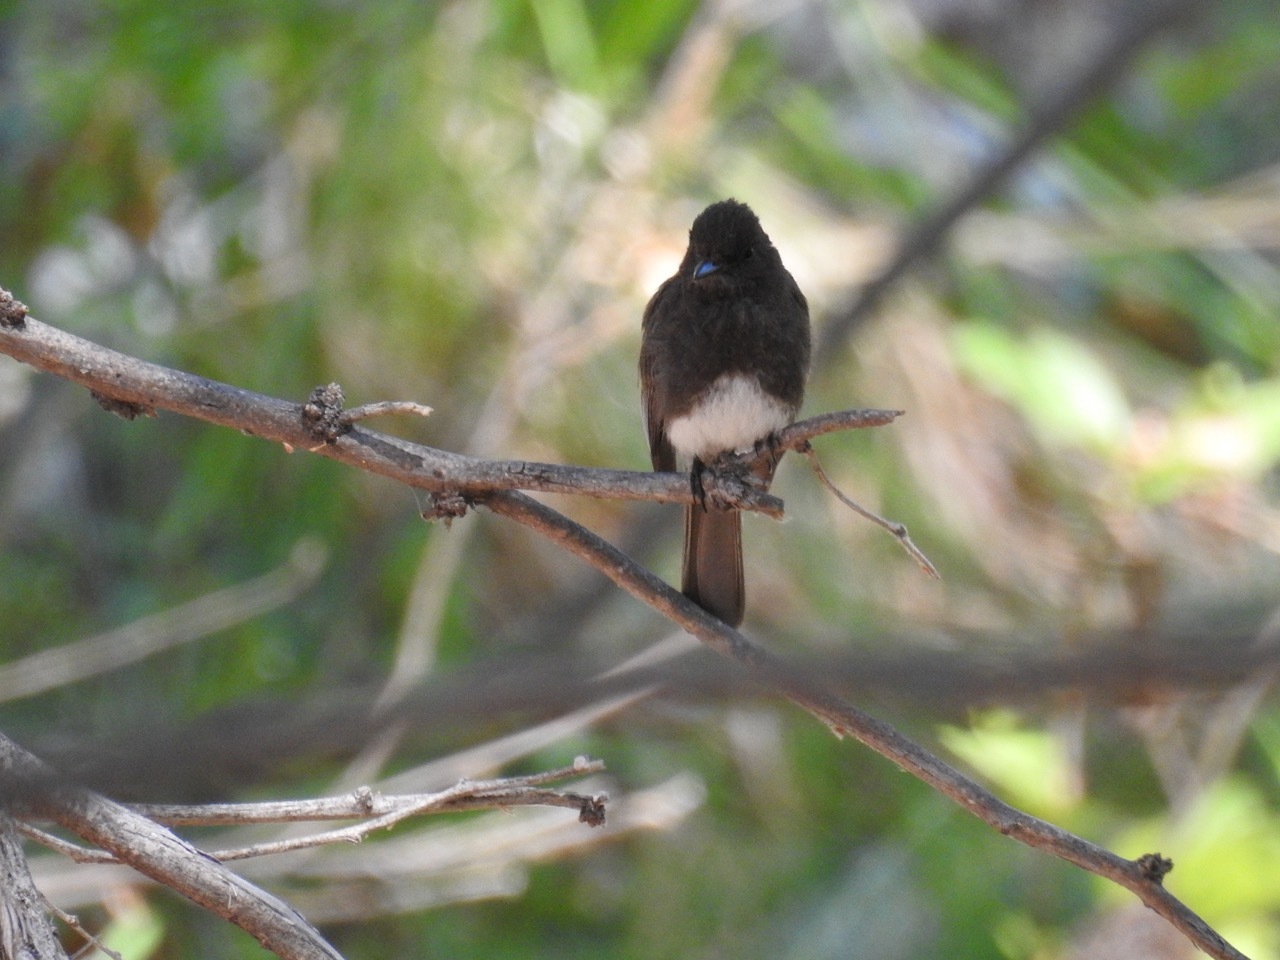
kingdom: Animalia
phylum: Chordata
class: Aves
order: Passeriformes
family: Tyrannidae
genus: Sayornis
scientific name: Sayornis nigricans
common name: Black phoebe
